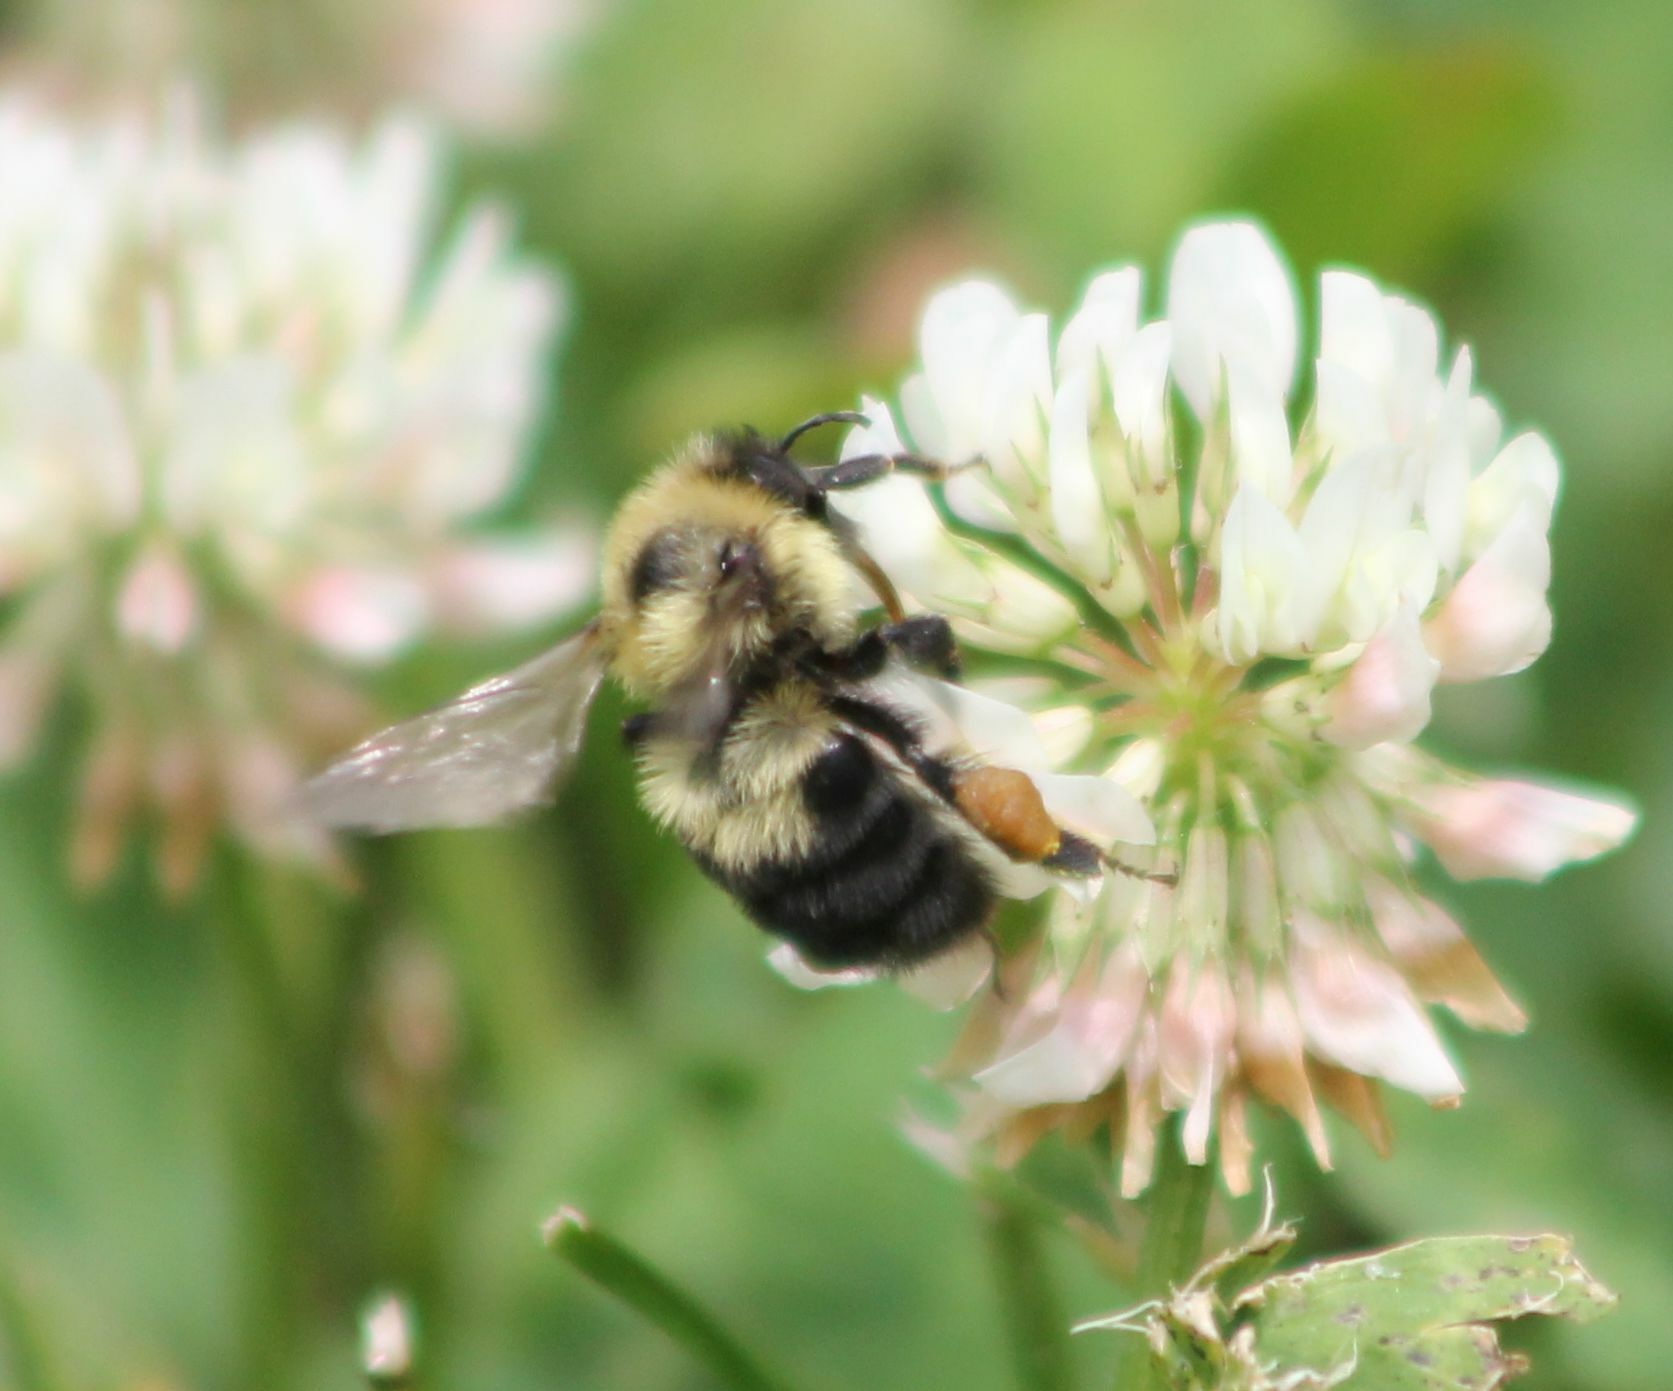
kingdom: Animalia
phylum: Arthropoda
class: Insecta
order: Hymenoptera
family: Apidae
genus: Bombus
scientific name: Bombus bimaculatus
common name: Two-spotted bumble bee
